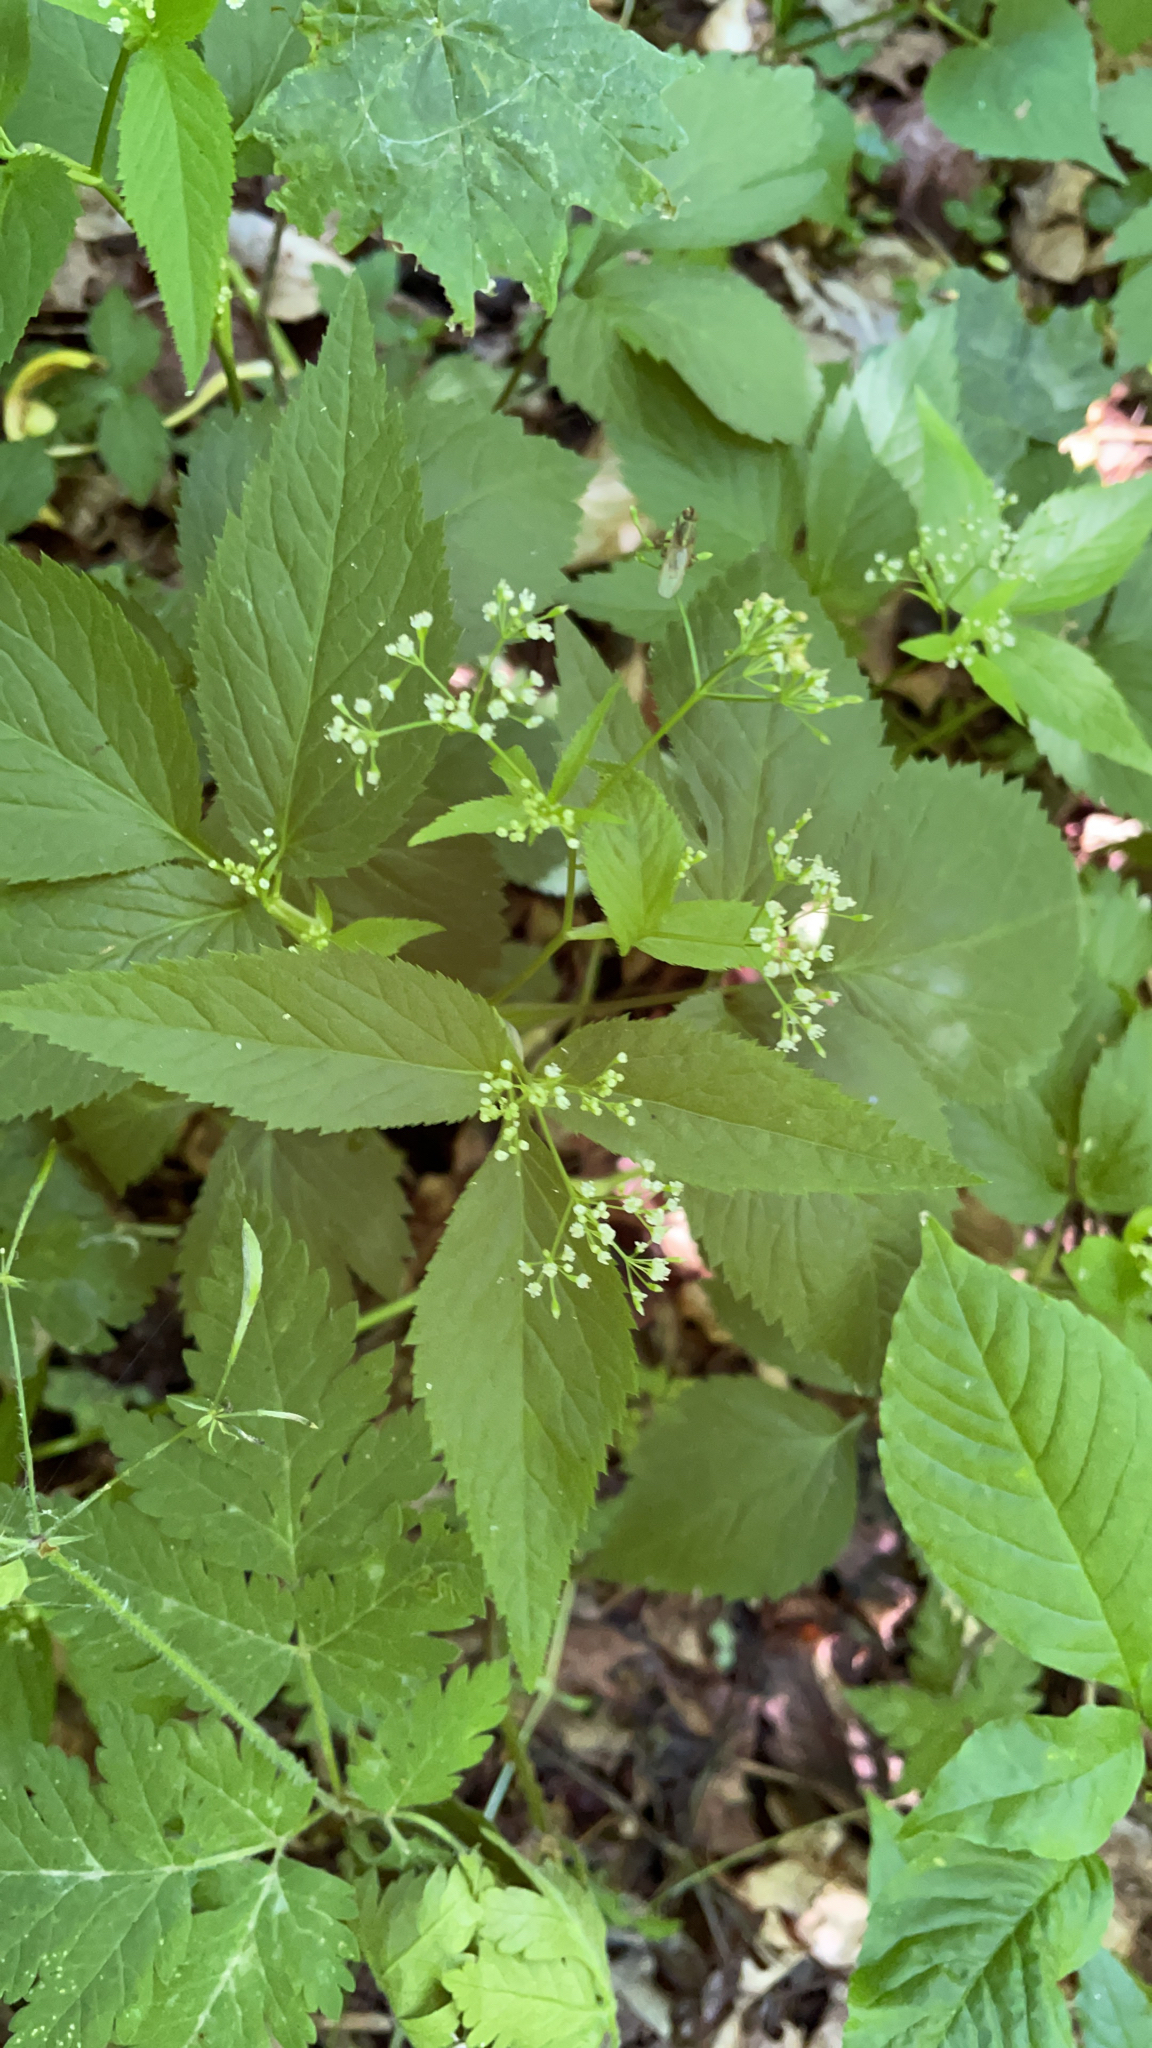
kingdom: Plantae
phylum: Tracheophyta
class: Magnoliopsida
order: Apiales
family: Apiaceae
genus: Cryptotaenia
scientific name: Cryptotaenia canadensis
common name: Honewort
